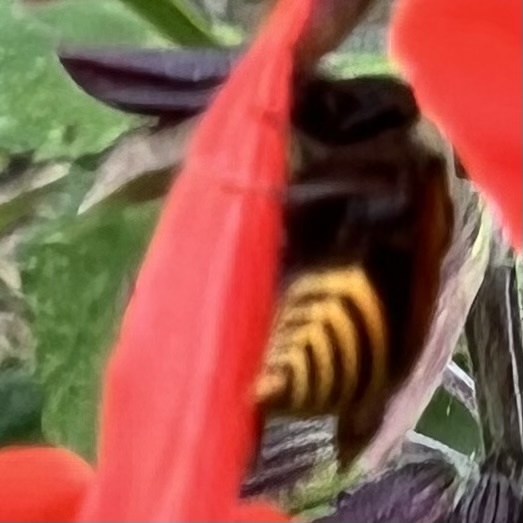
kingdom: Animalia
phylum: Arthropoda
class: Insecta
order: Hymenoptera
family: Vespidae
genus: Brachygastra
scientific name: Brachygastra mellifica
